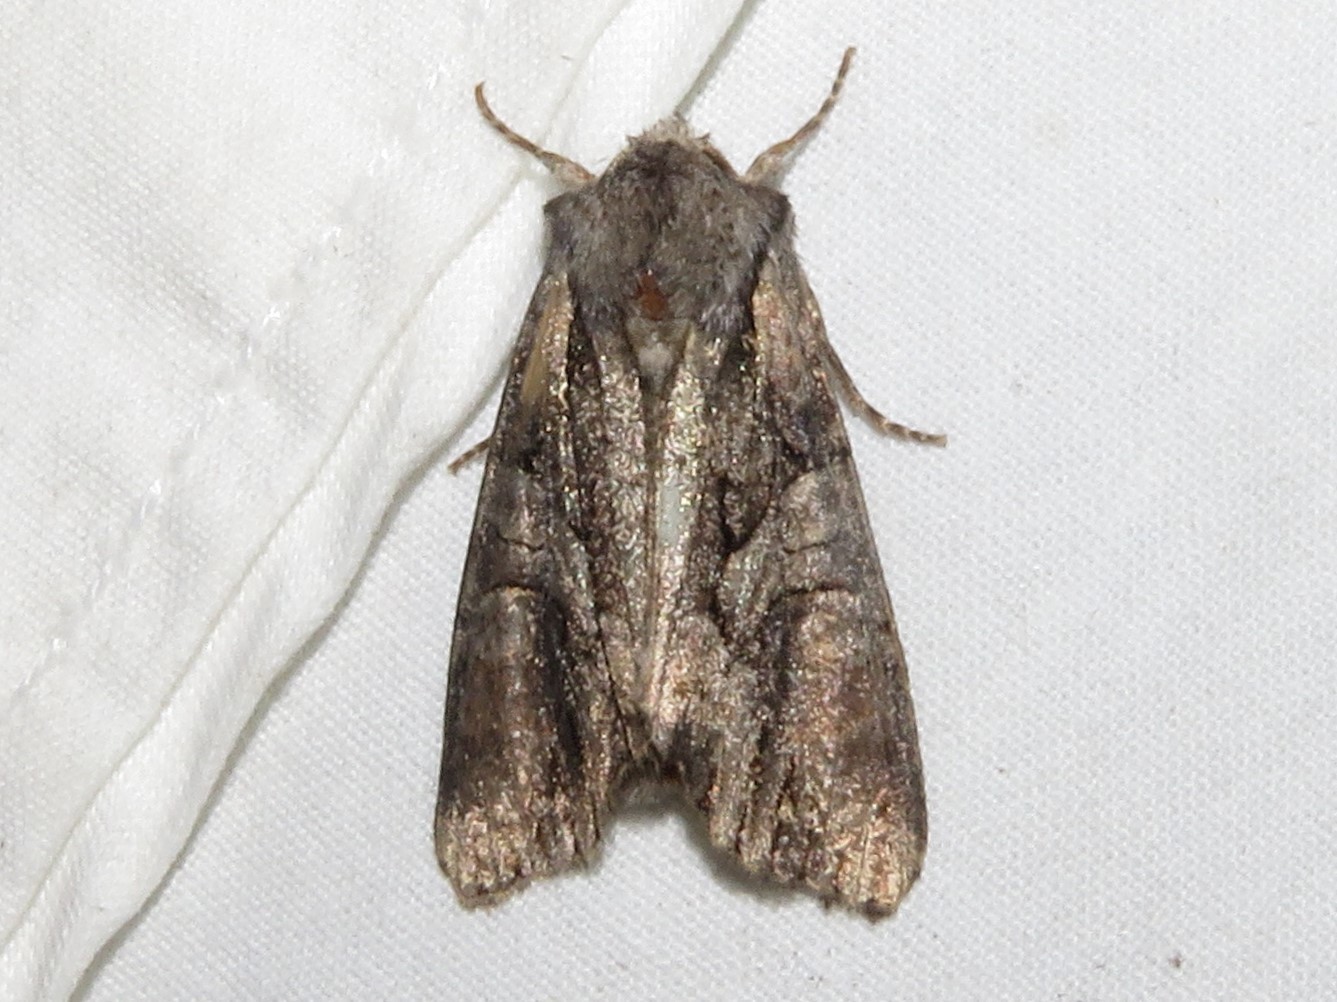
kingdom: Animalia
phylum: Arthropoda
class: Insecta
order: Lepidoptera
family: Noctuidae
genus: Lacanobia
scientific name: Lacanobia subjuncta
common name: Speckled cutworm moth
